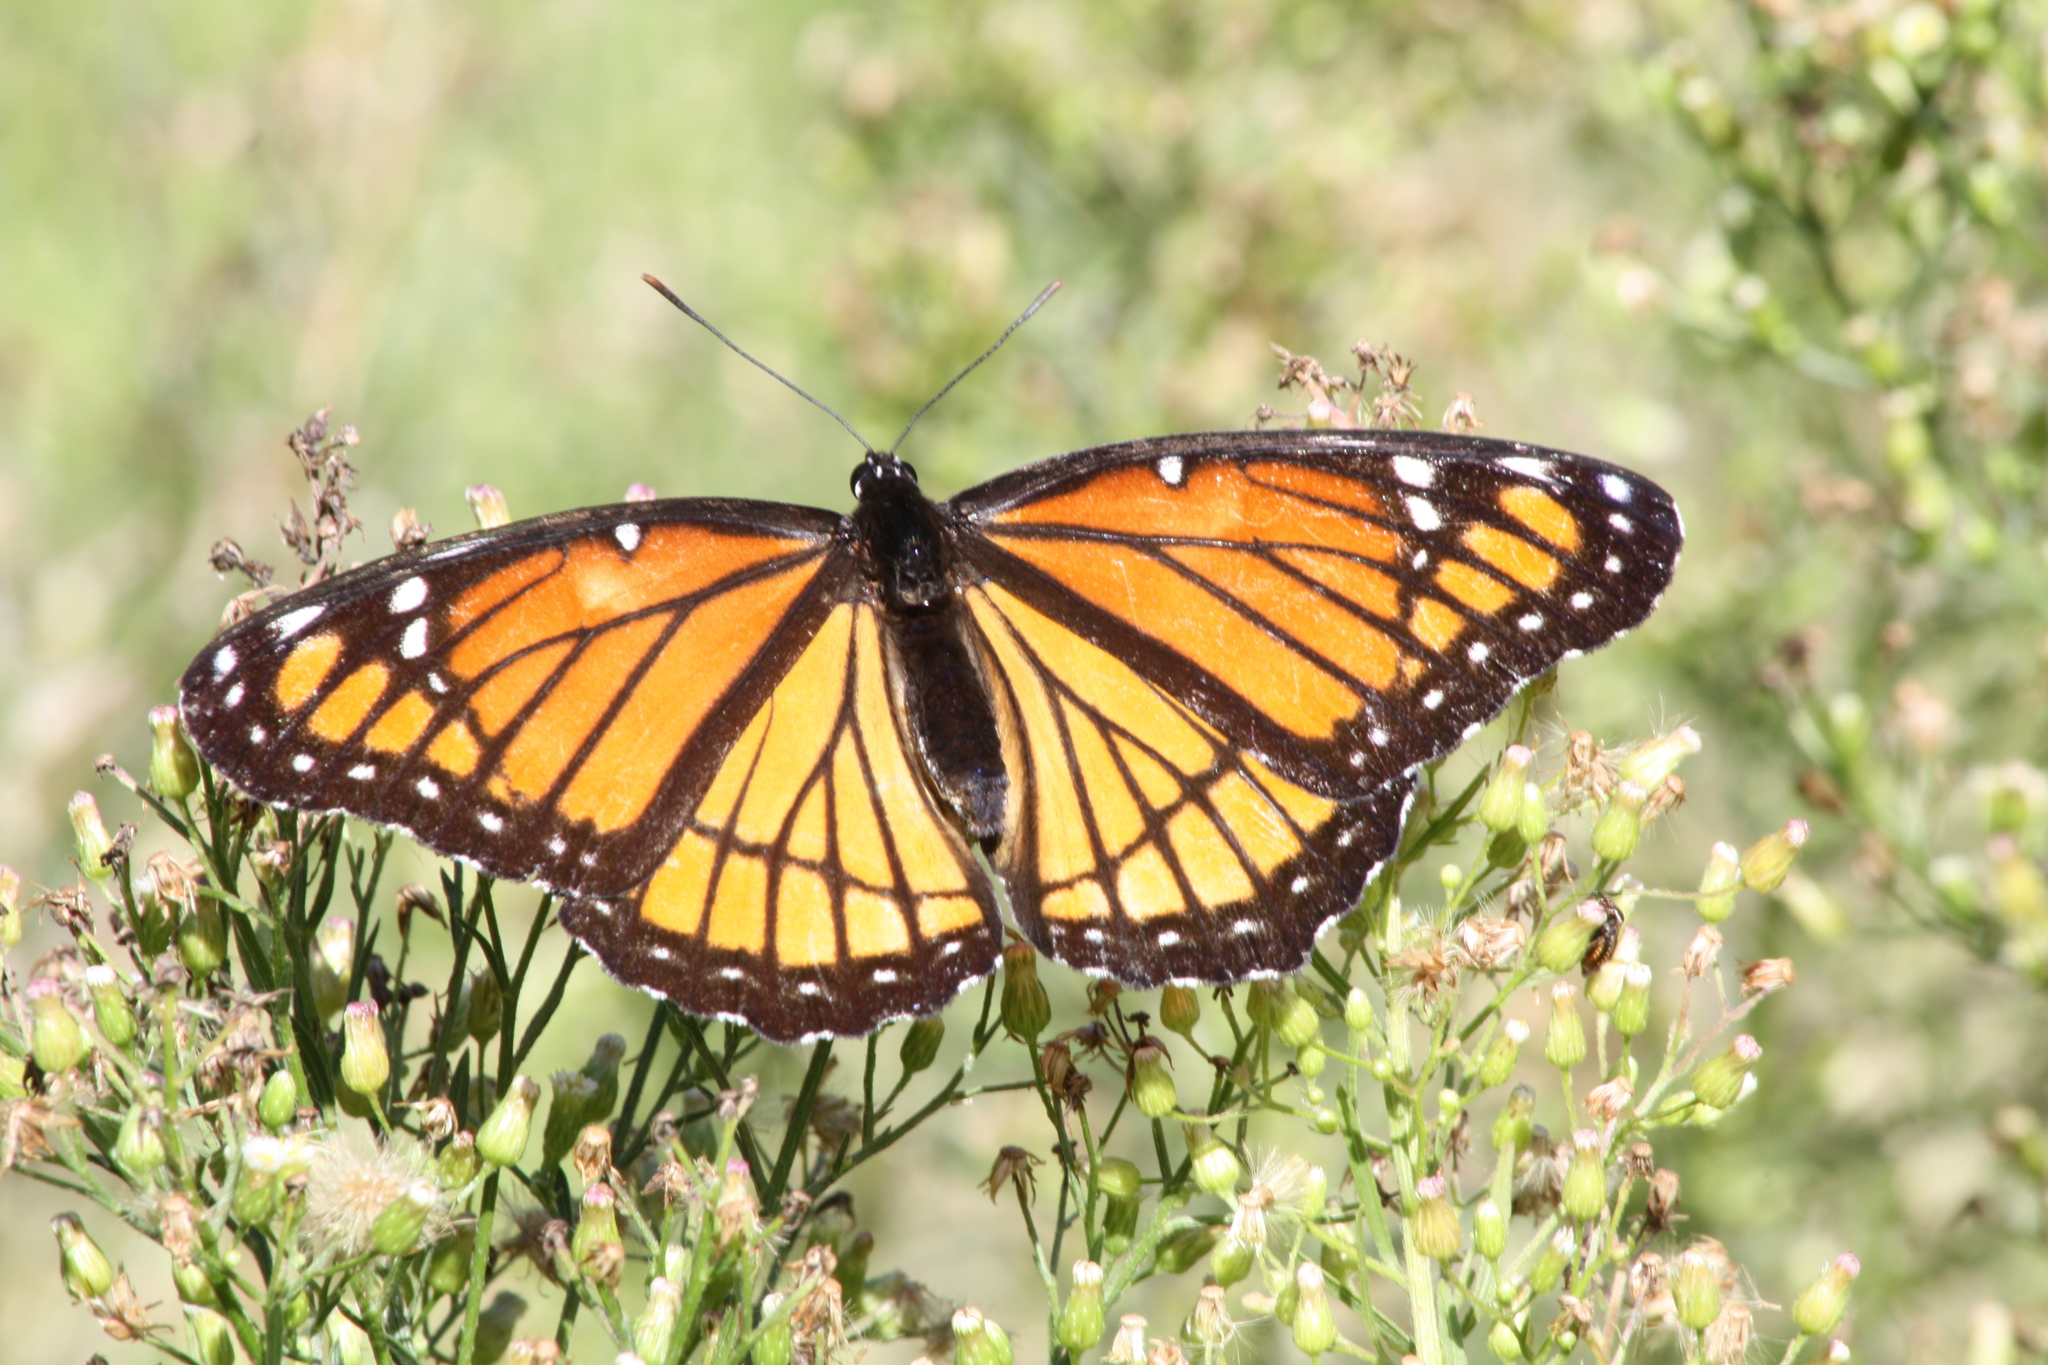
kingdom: Animalia
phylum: Arthropoda
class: Insecta
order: Lepidoptera
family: Nymphalidae
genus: Limenitis
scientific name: Limenitis archippus
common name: Viceroy
